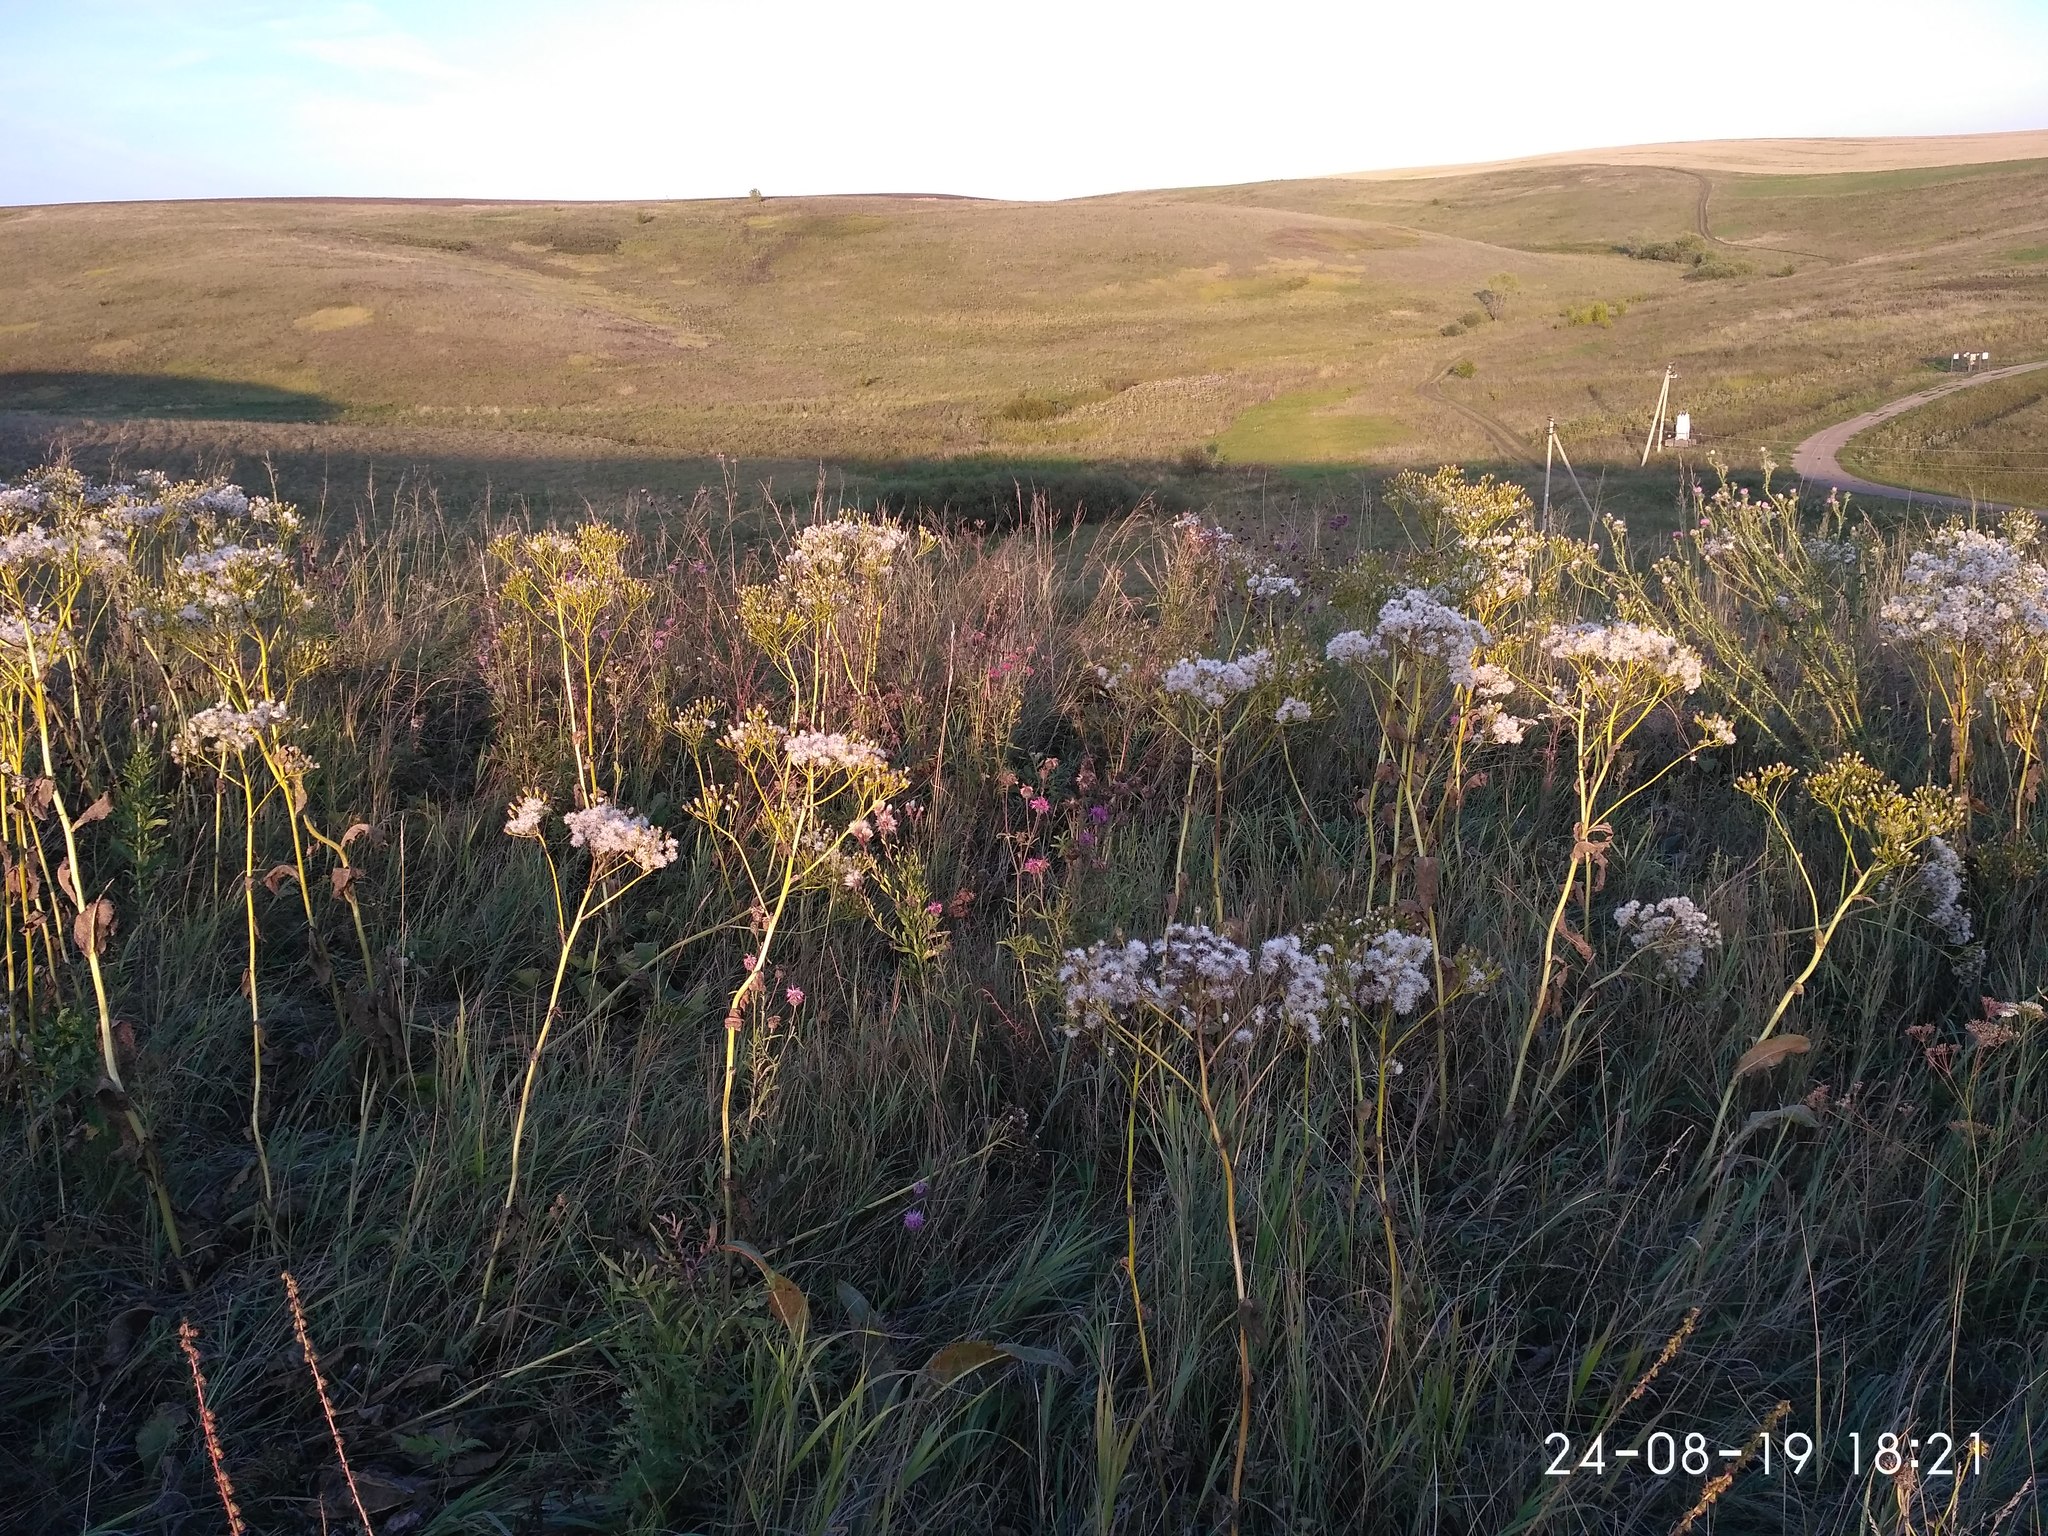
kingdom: Plantae
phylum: Tracheophyta
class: Magnoliopsida
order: Asterales
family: Asteraceae
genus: Senecio
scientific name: Senecio doria
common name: Golden ragwort
